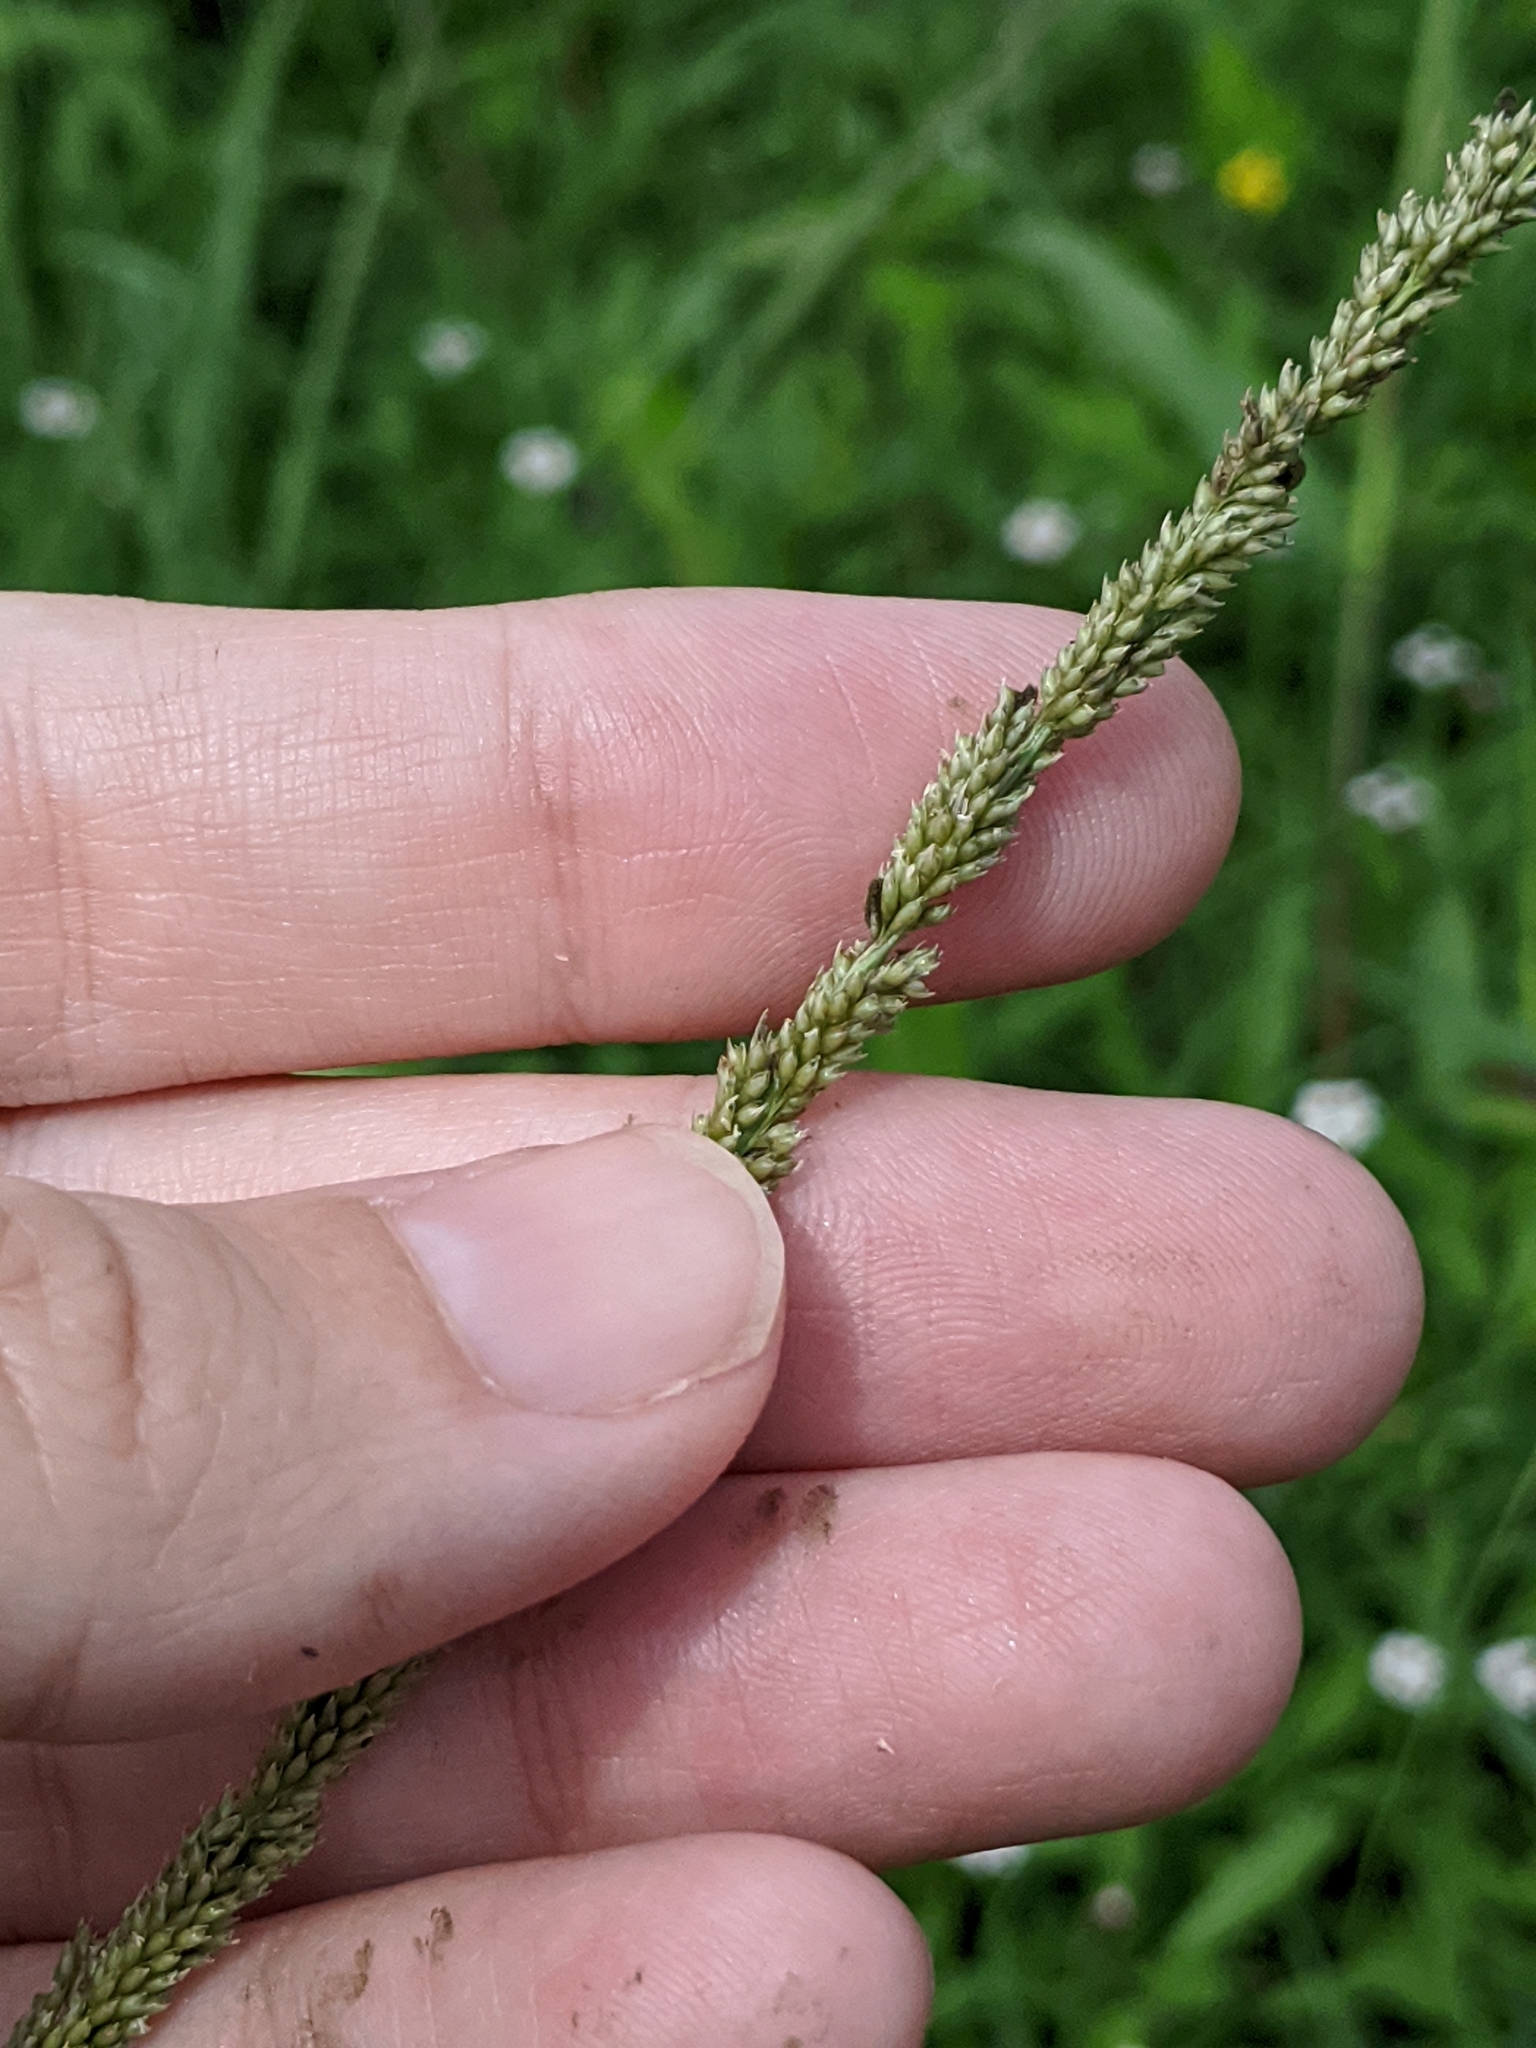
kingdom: Fungi
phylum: Ascomycota
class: Dothideomycetes
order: Pleosporales
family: Pleosporaceae
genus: Curvularia
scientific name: Curvularia ravenelii
